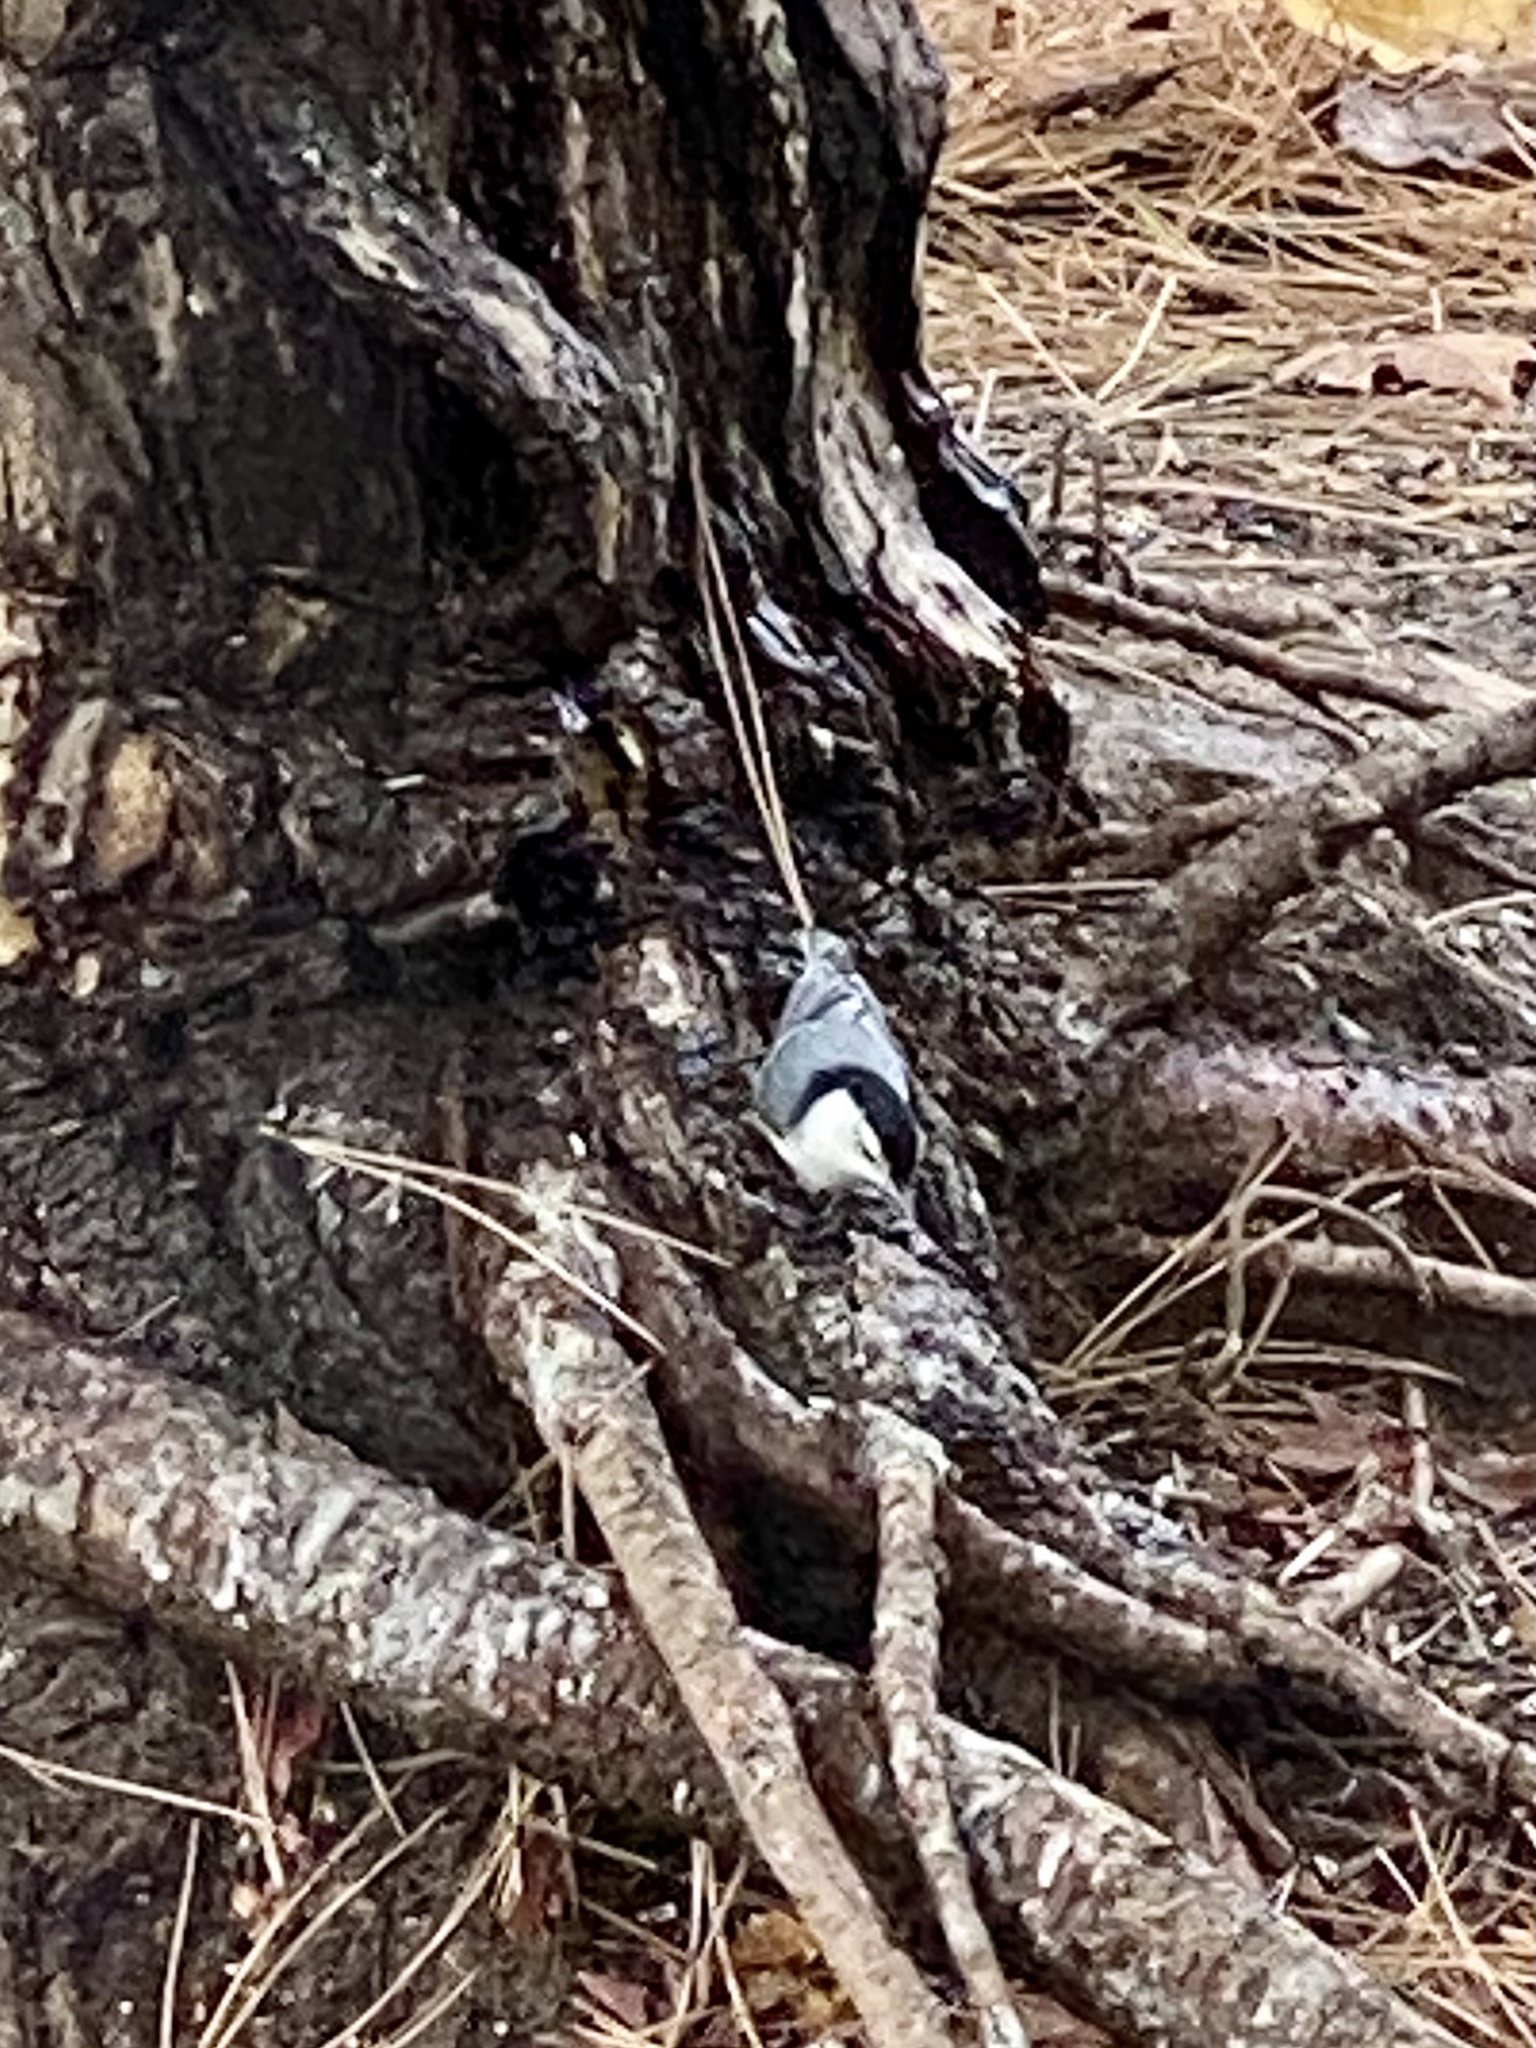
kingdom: Animalia
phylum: Chordata
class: Aves
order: Passeriformes
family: Sittidae
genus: Sitta
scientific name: Sitta carolinensis
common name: White-breasted nuthatch
